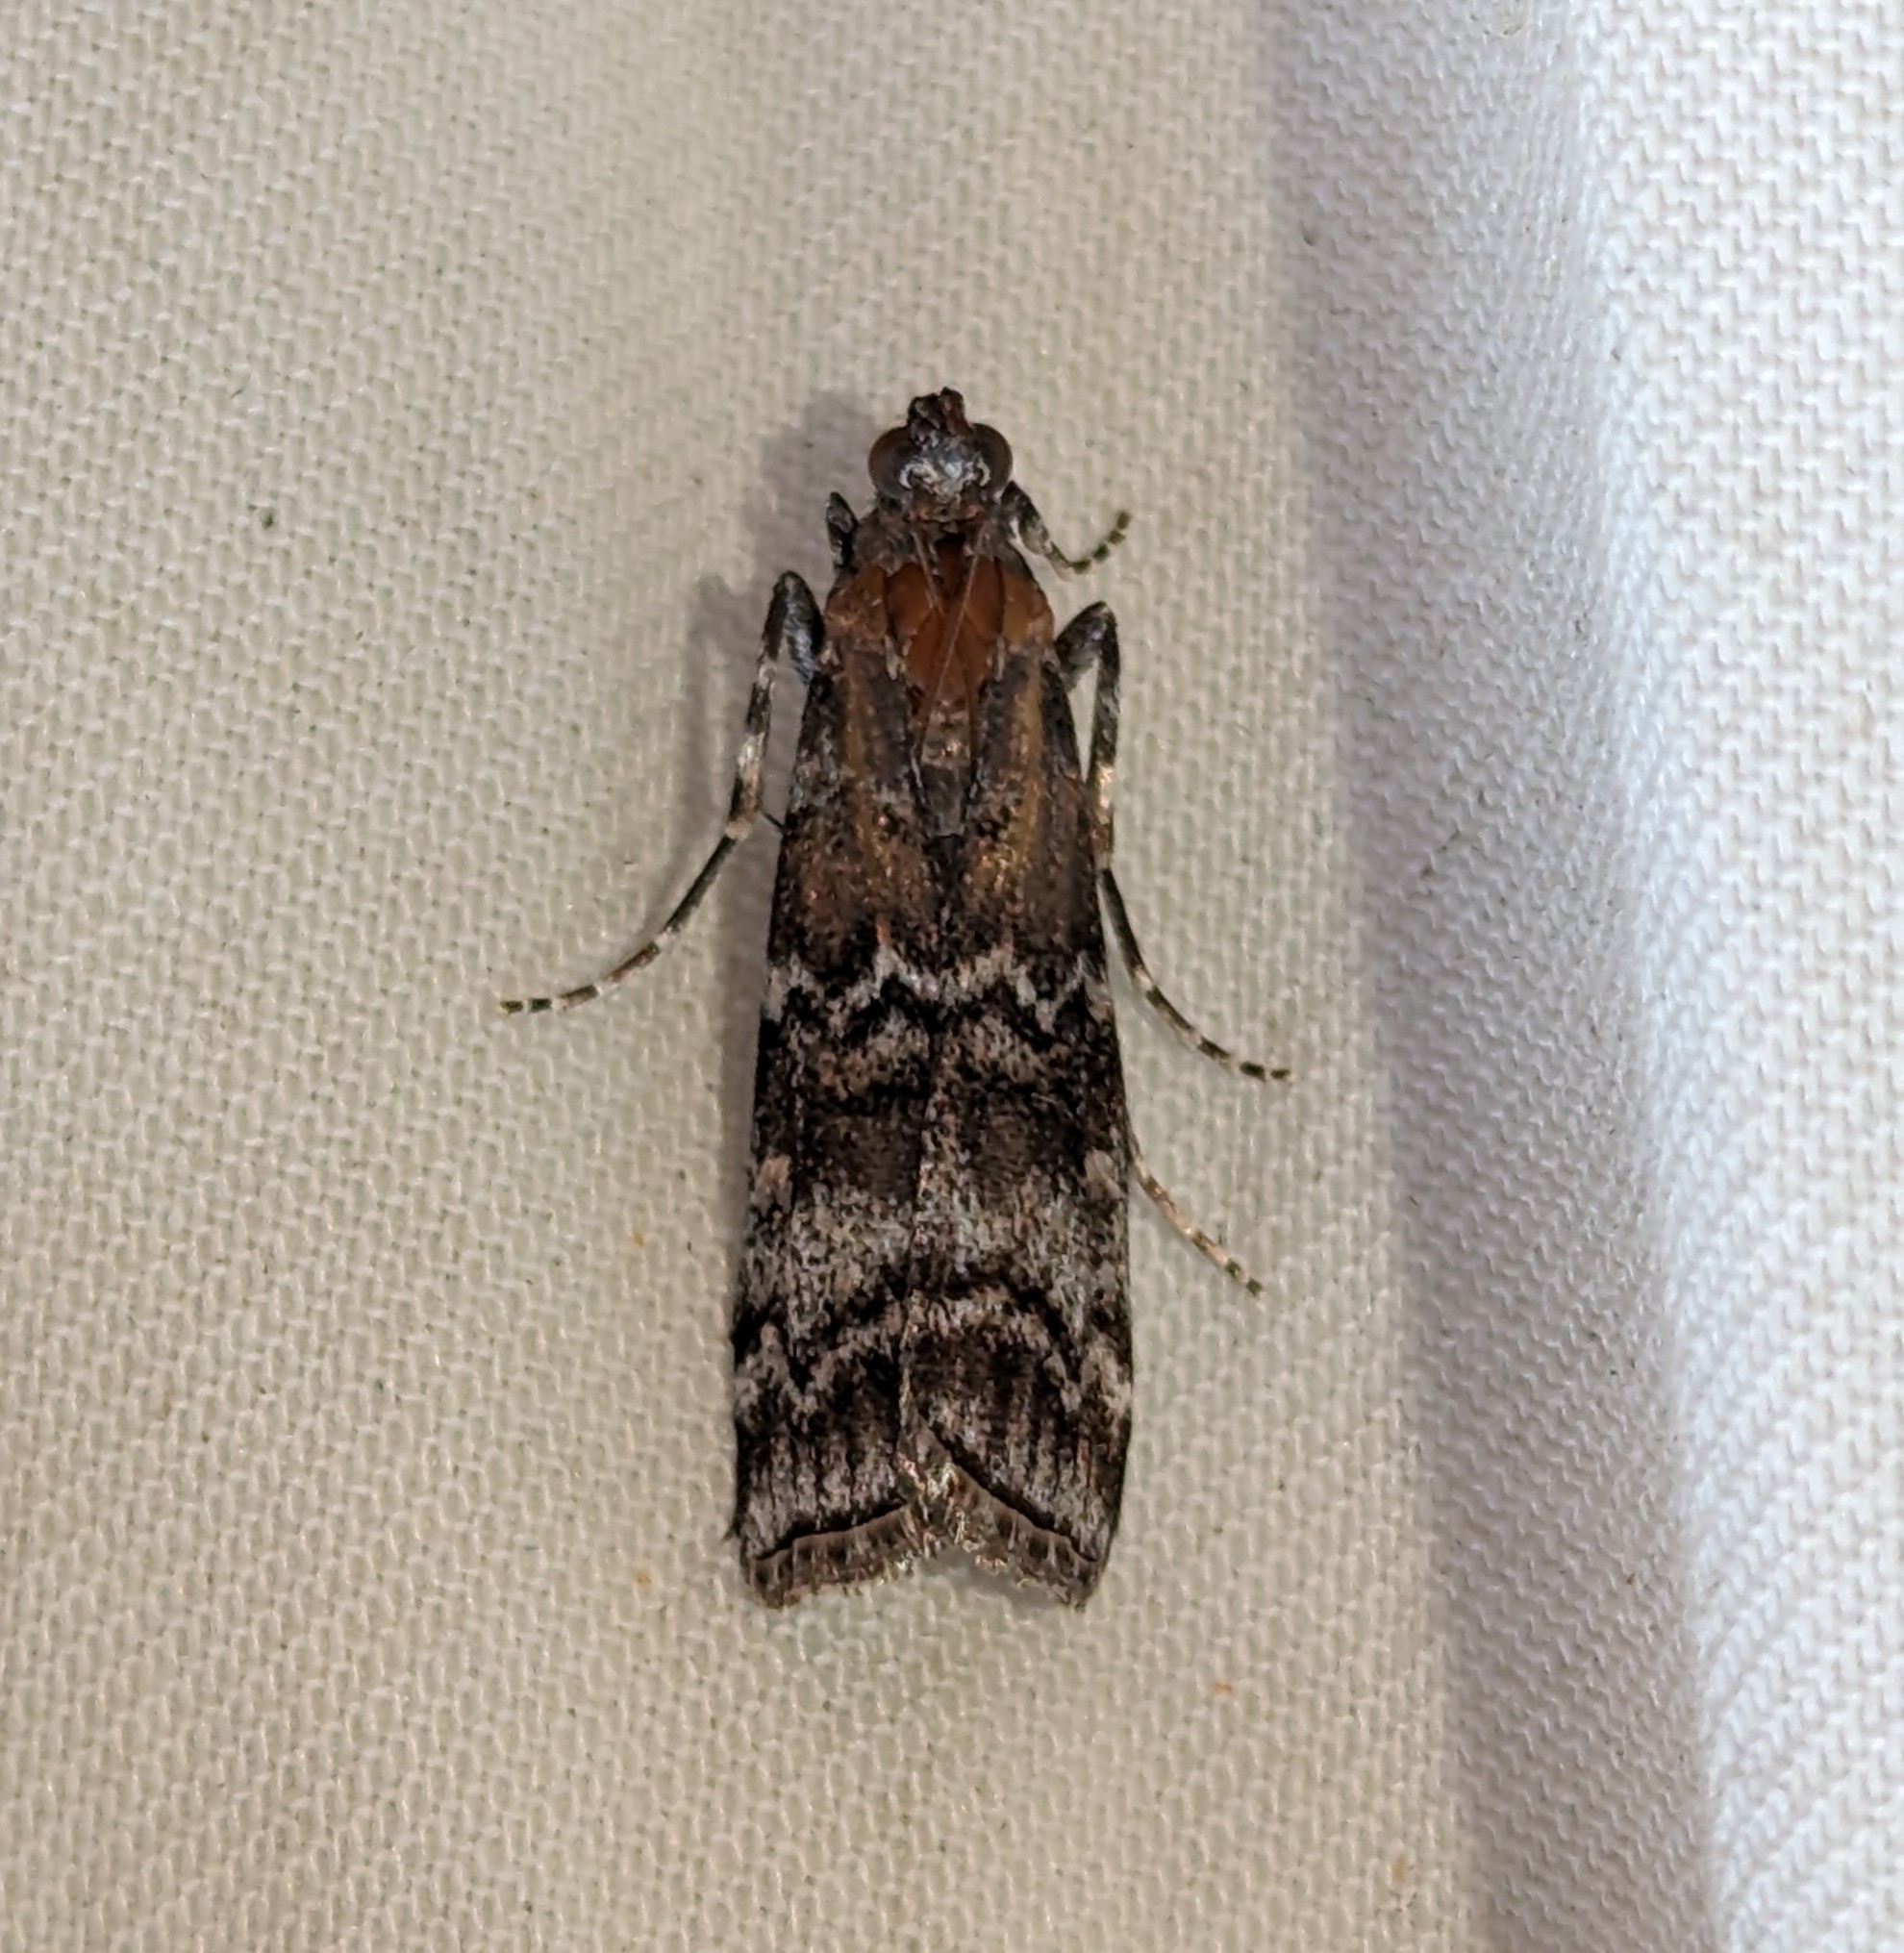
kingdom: Animalia
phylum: Arthropoda
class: Insecta
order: Lepidoptera
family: Pyralidae
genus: Dioryctria
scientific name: Dioryctria banksiella
